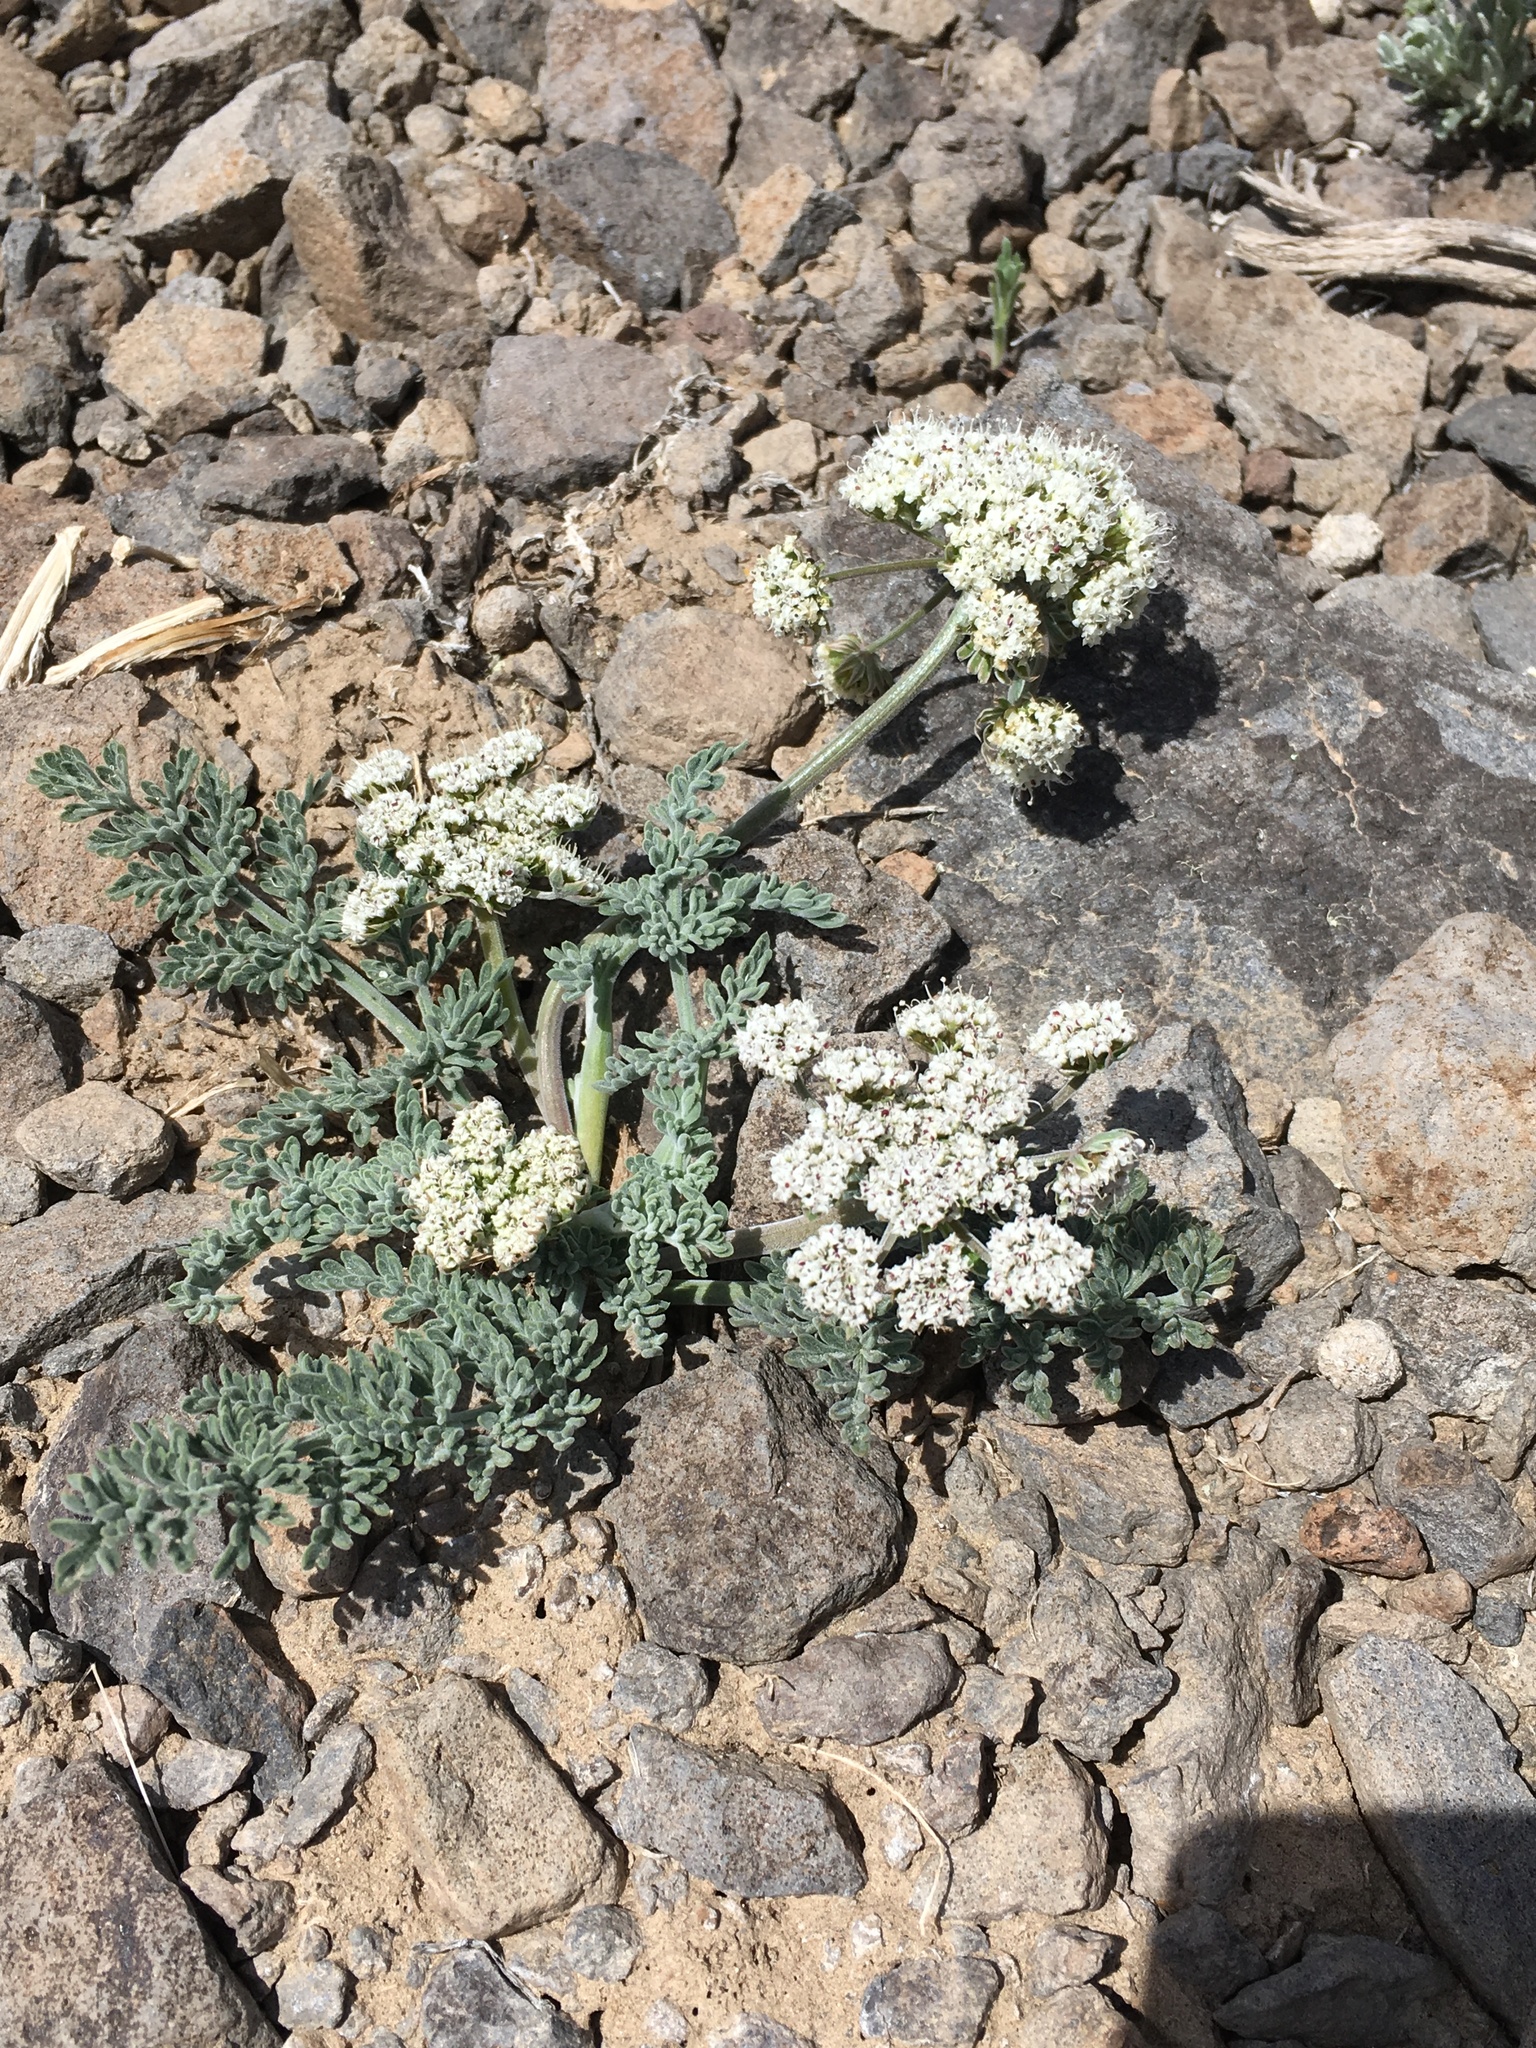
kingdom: Plantae
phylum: Tracheophyta
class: Magnoliopsida
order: Apiales
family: Apiaceae
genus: Lomatium
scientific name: Lomatium nevadense
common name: Nevada lomatium
